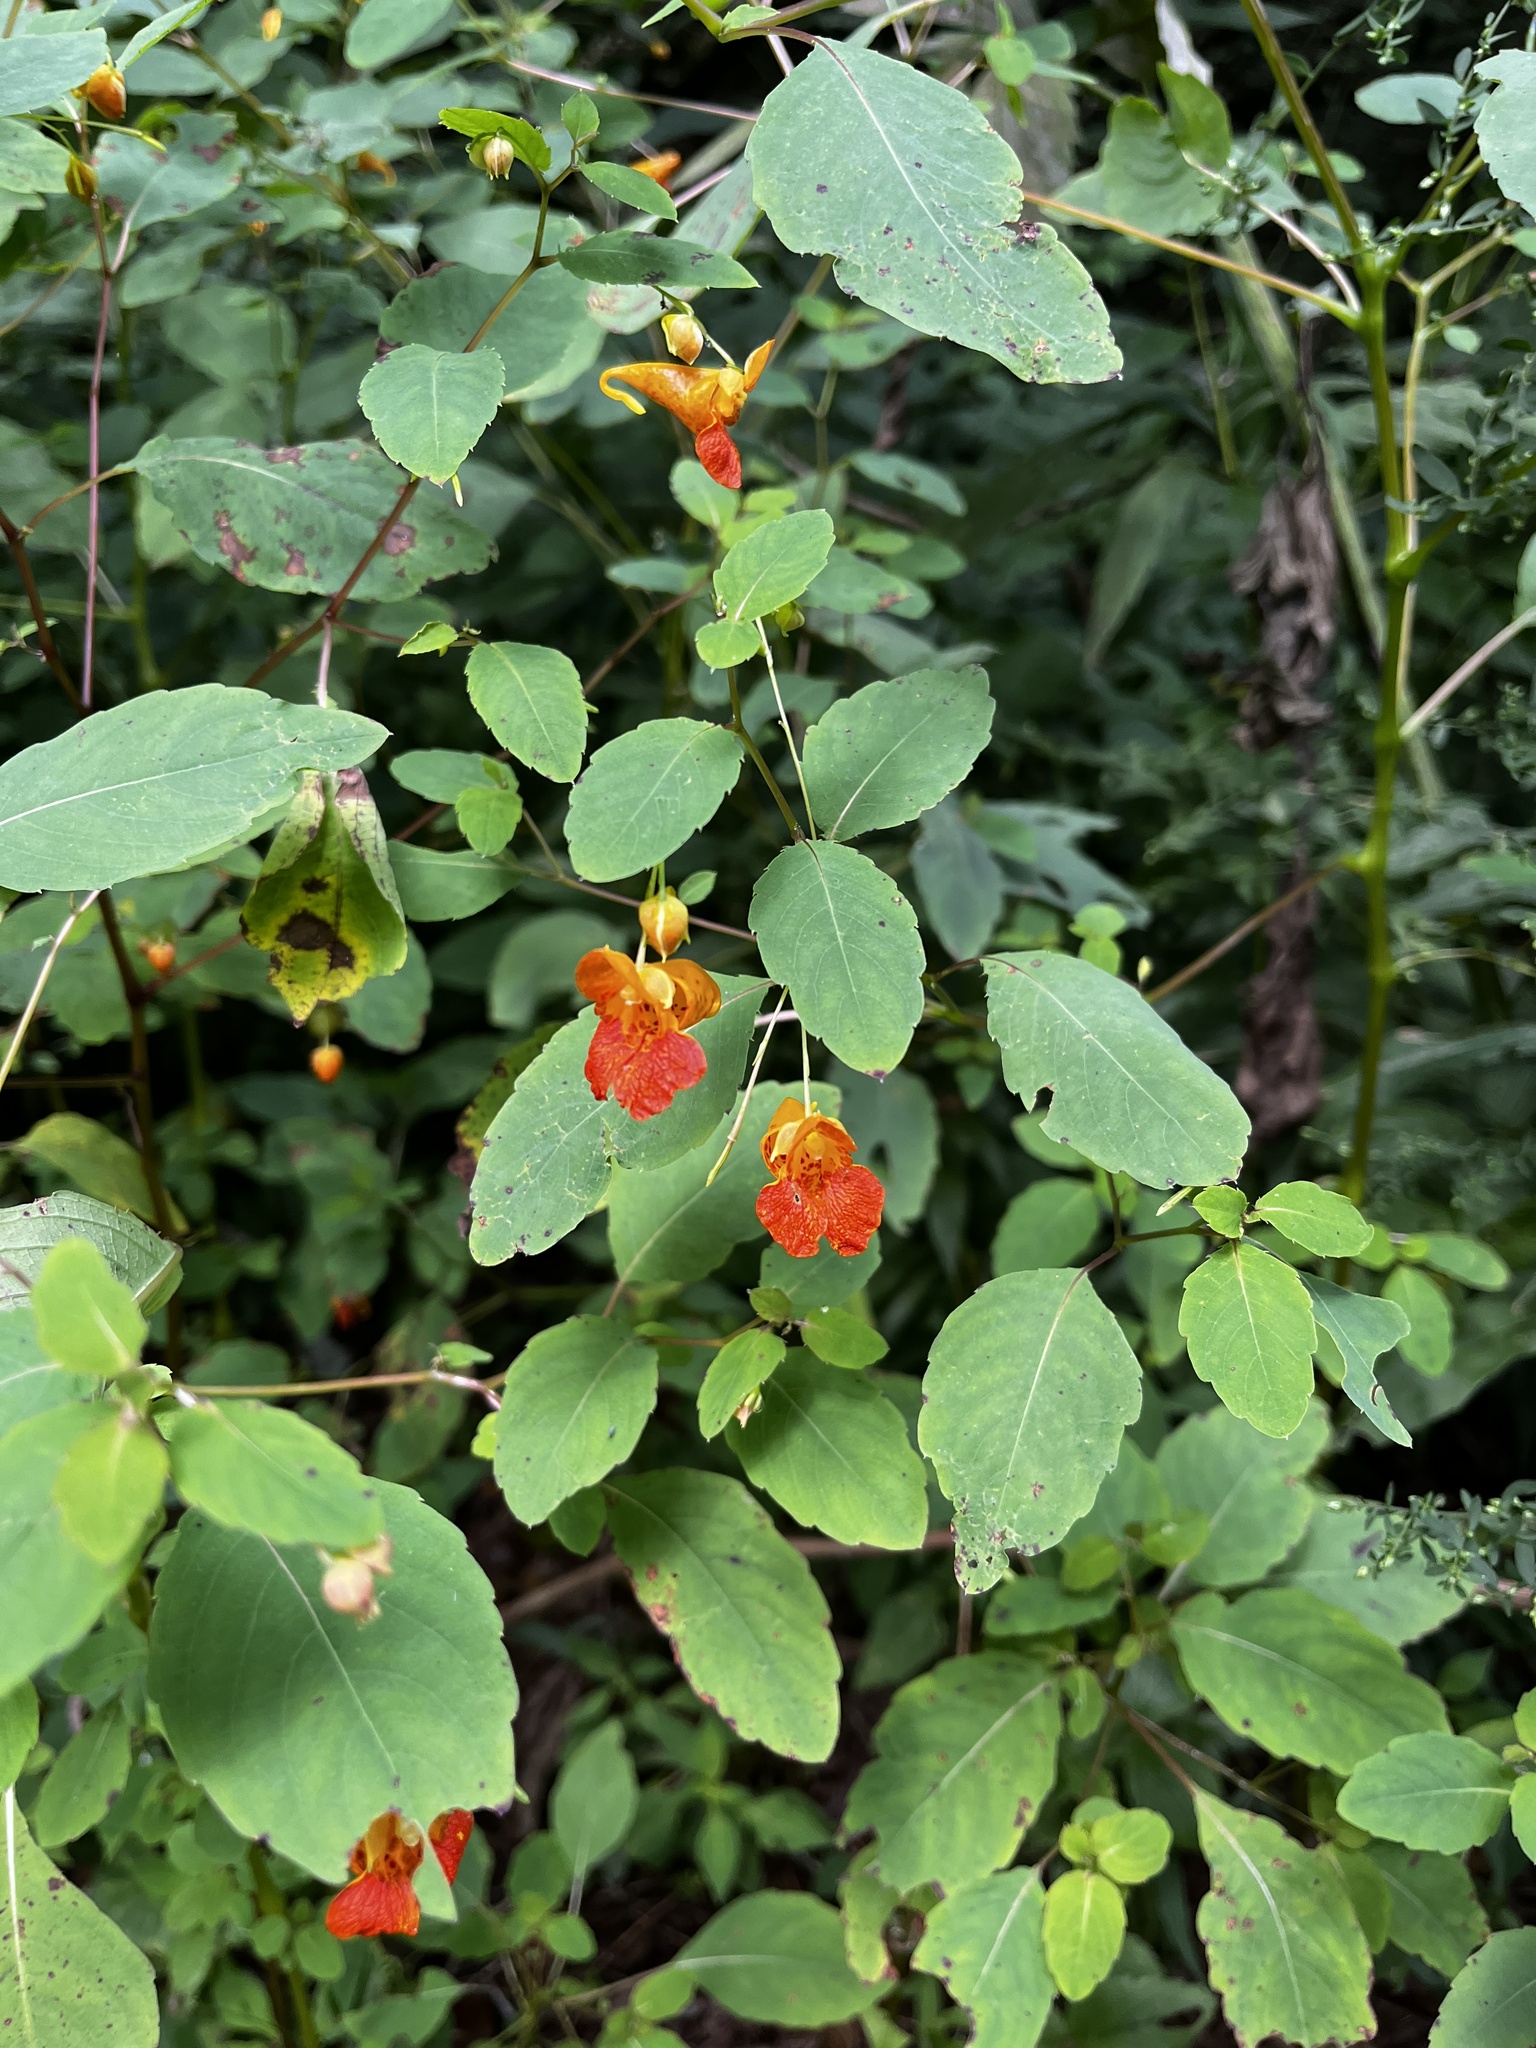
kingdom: Plantae
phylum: Tracheophyta
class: Magnoliopsida
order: Ericales
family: Balsaminaceae
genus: Impatiens
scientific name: Impatiens capensis
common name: Orange balsam
